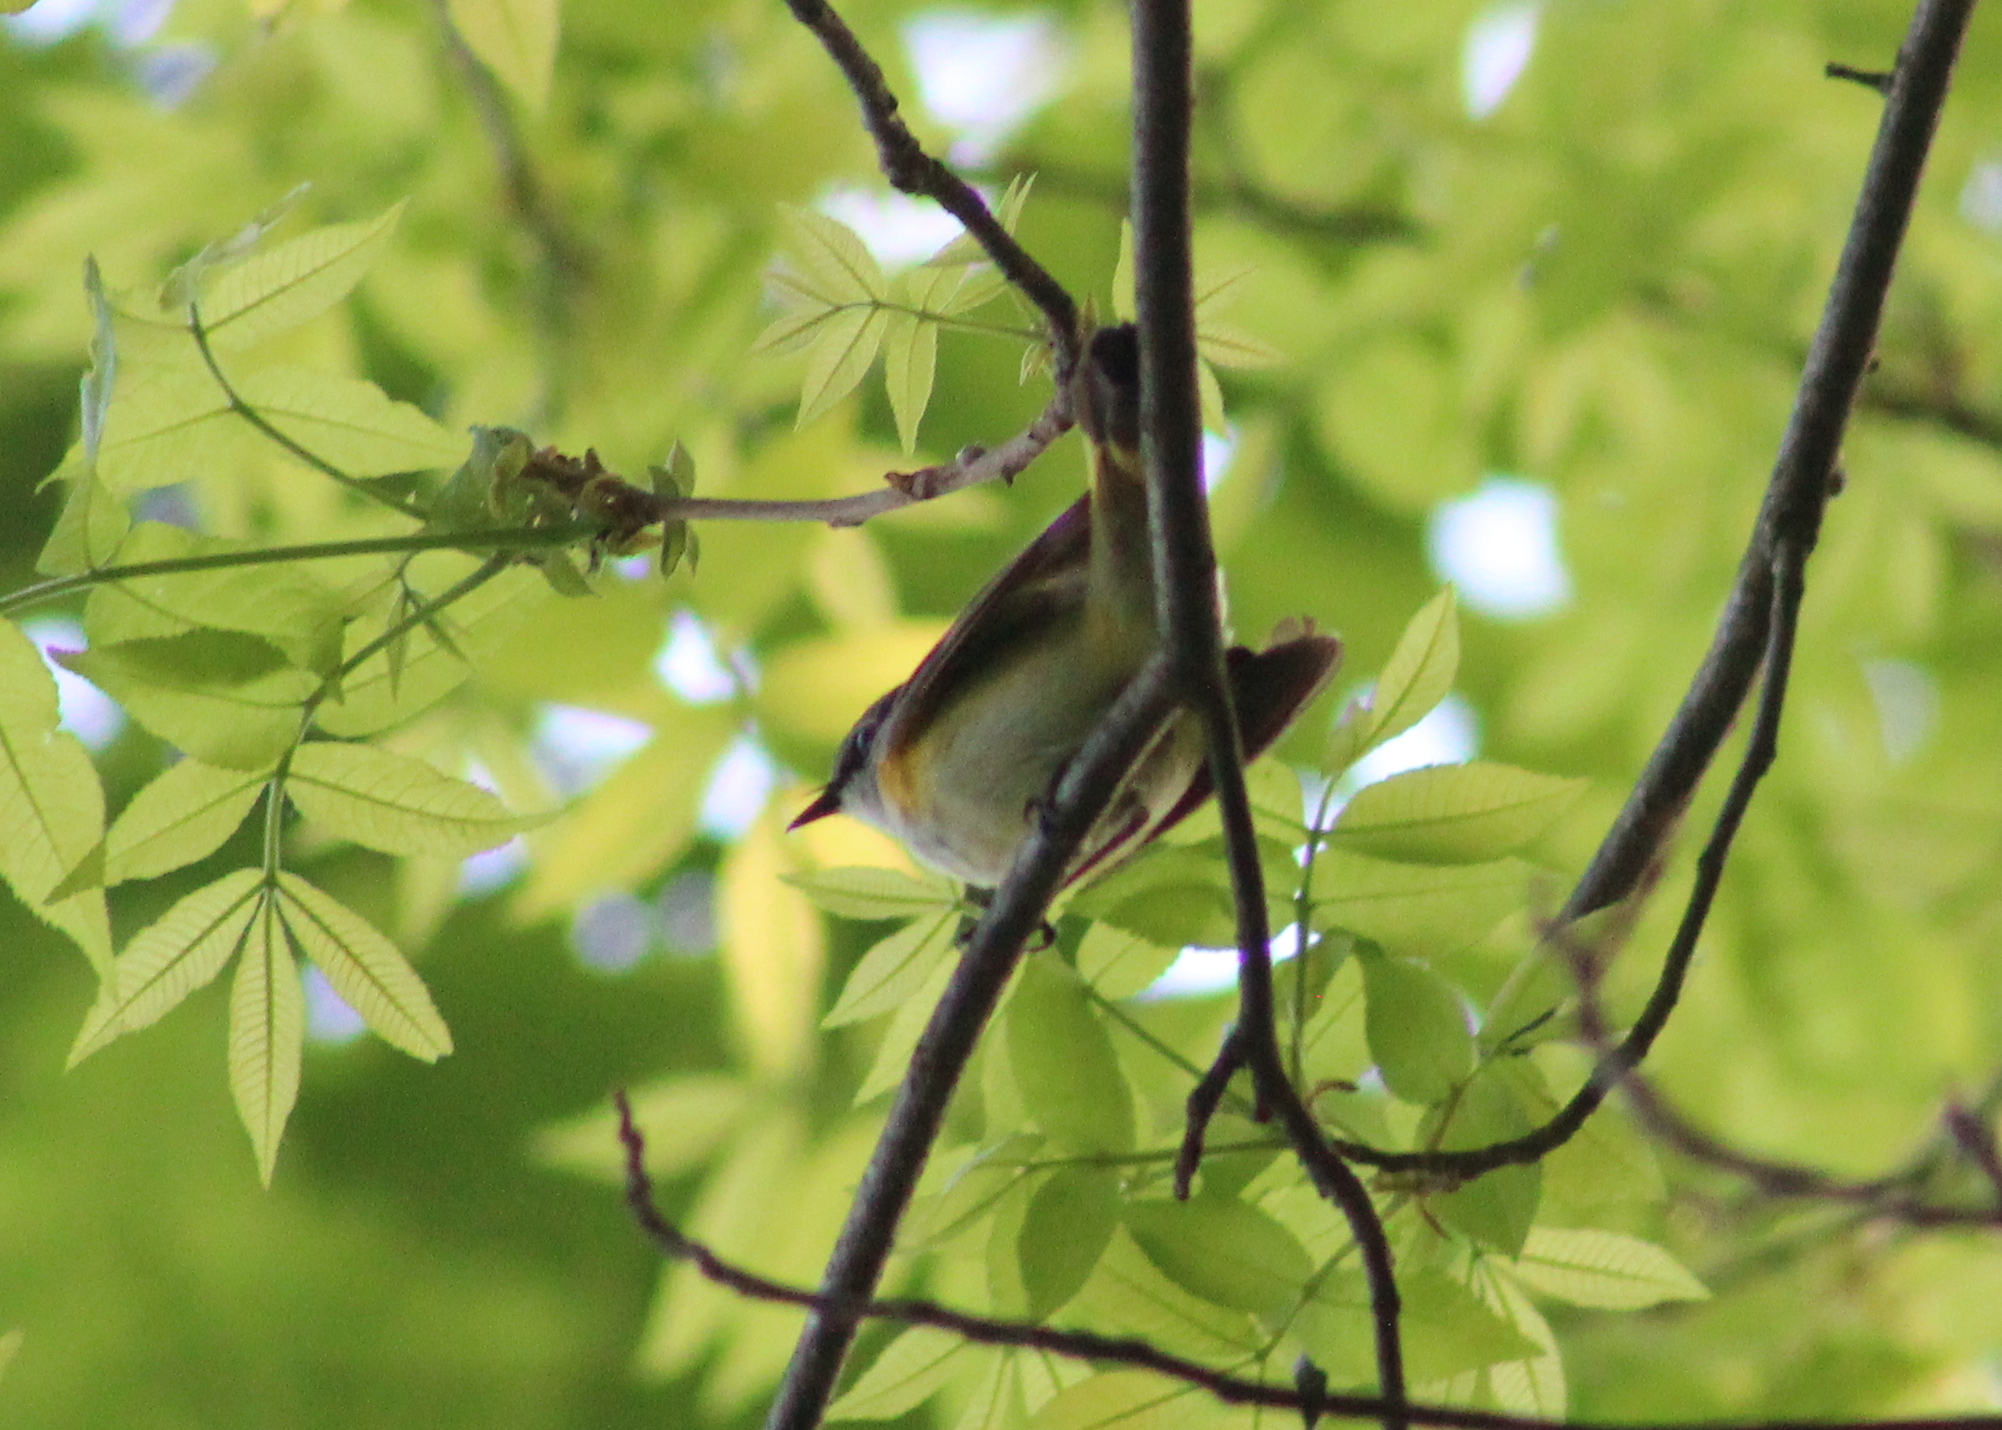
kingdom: Animalia
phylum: Chordata
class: Aves
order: Passeriformes
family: Parulidae
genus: Setophaga
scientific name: Setophaga ruticilla
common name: American redstart
